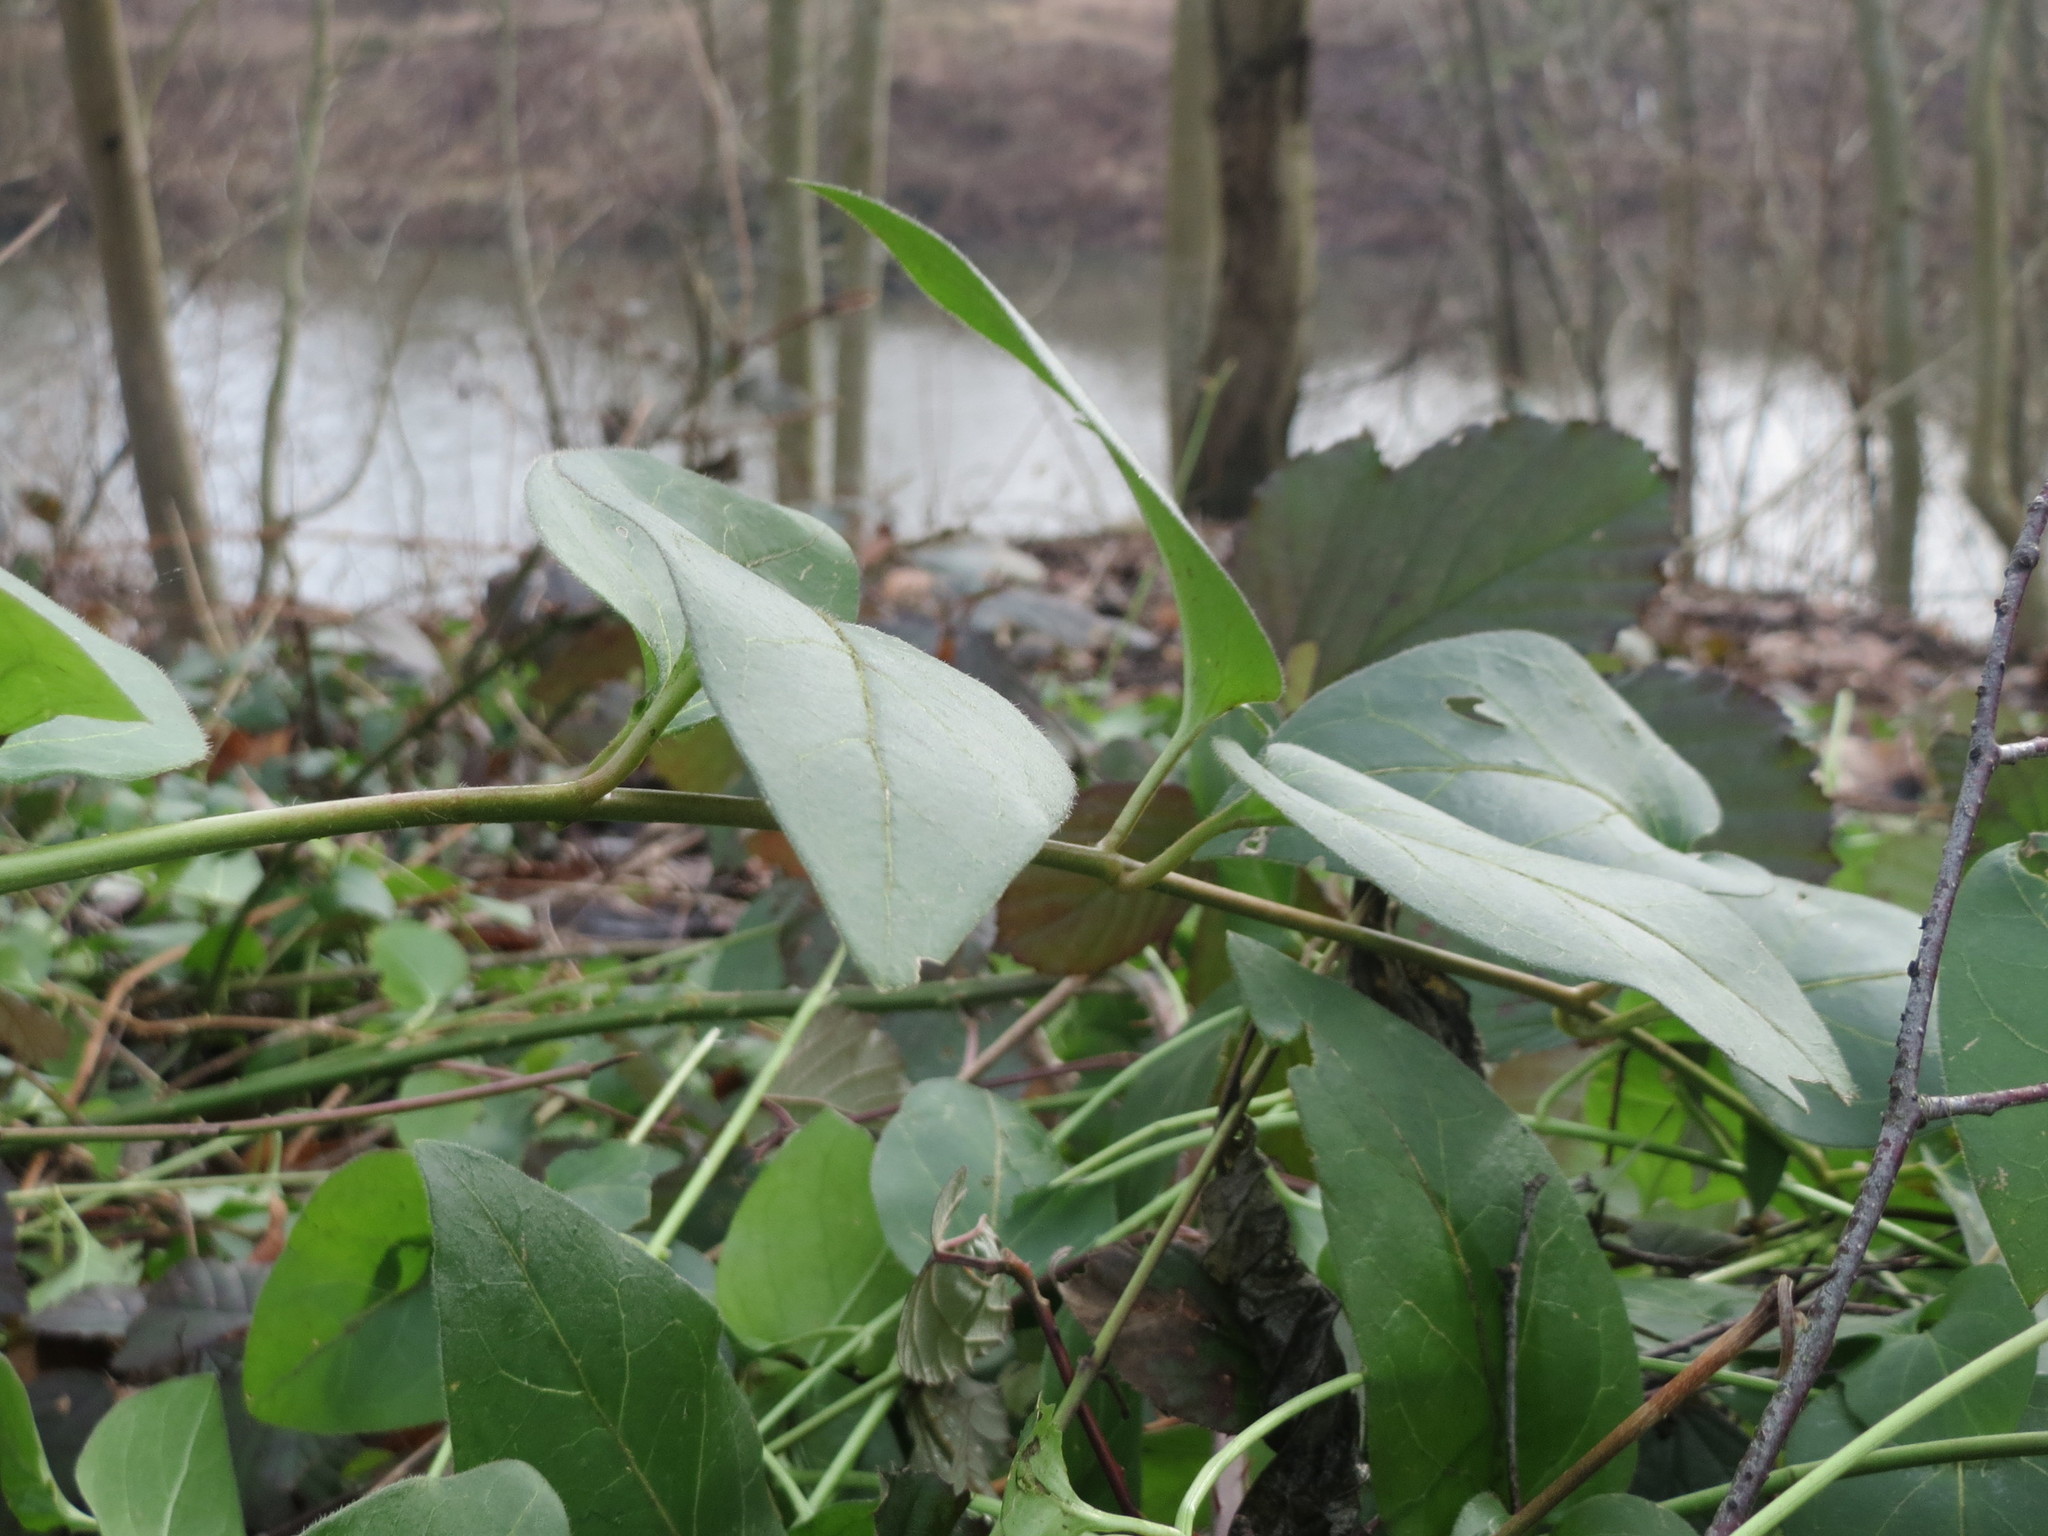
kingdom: Plantae
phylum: Tracheophyta
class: Magnoliopsida
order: Gentianales
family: Apocynaceae
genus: Vinca
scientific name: Vinca major
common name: Greater periwinkle
